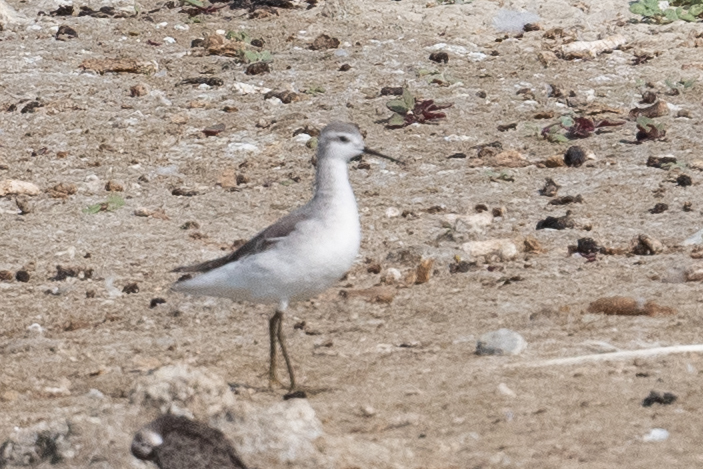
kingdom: Animalia
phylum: Chordata
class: Aves
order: Charadriiformes
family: Scolopacidae
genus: Phalaropus
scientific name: Phalaropus tricolor
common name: Wilson's phalarope
